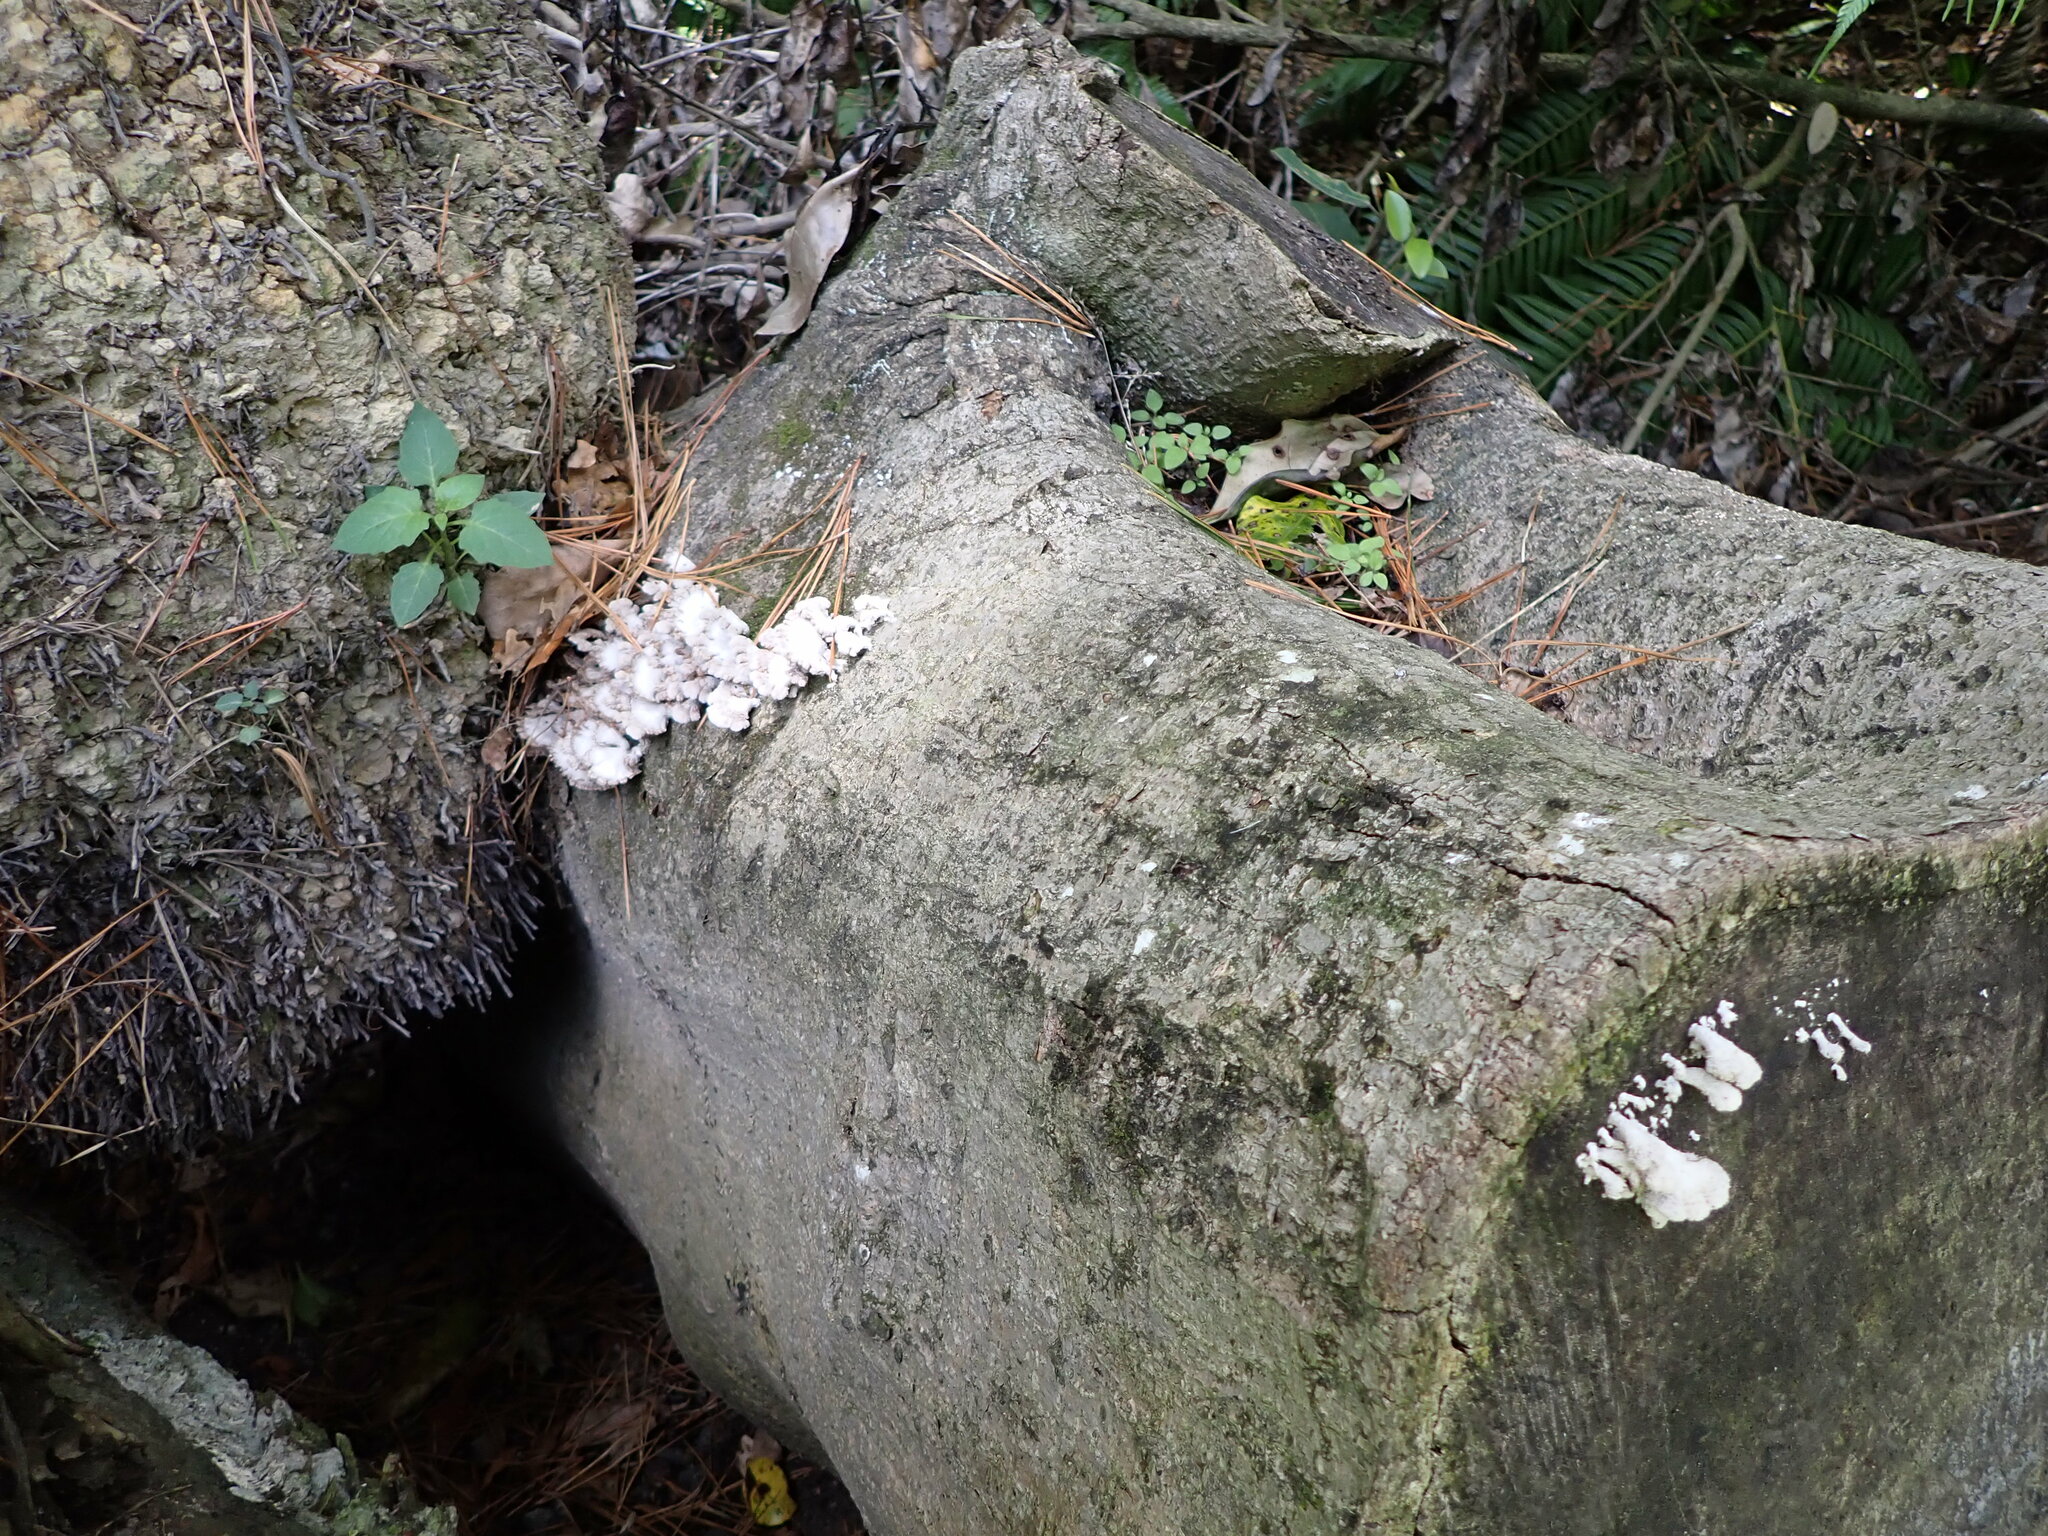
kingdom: Fungi
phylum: Basidiomycota
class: Agaricomycetes
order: Agaricales
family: Schizophyllaceae
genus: Schizophyllum
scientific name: Schizophyllum commune
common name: Common porecrust
